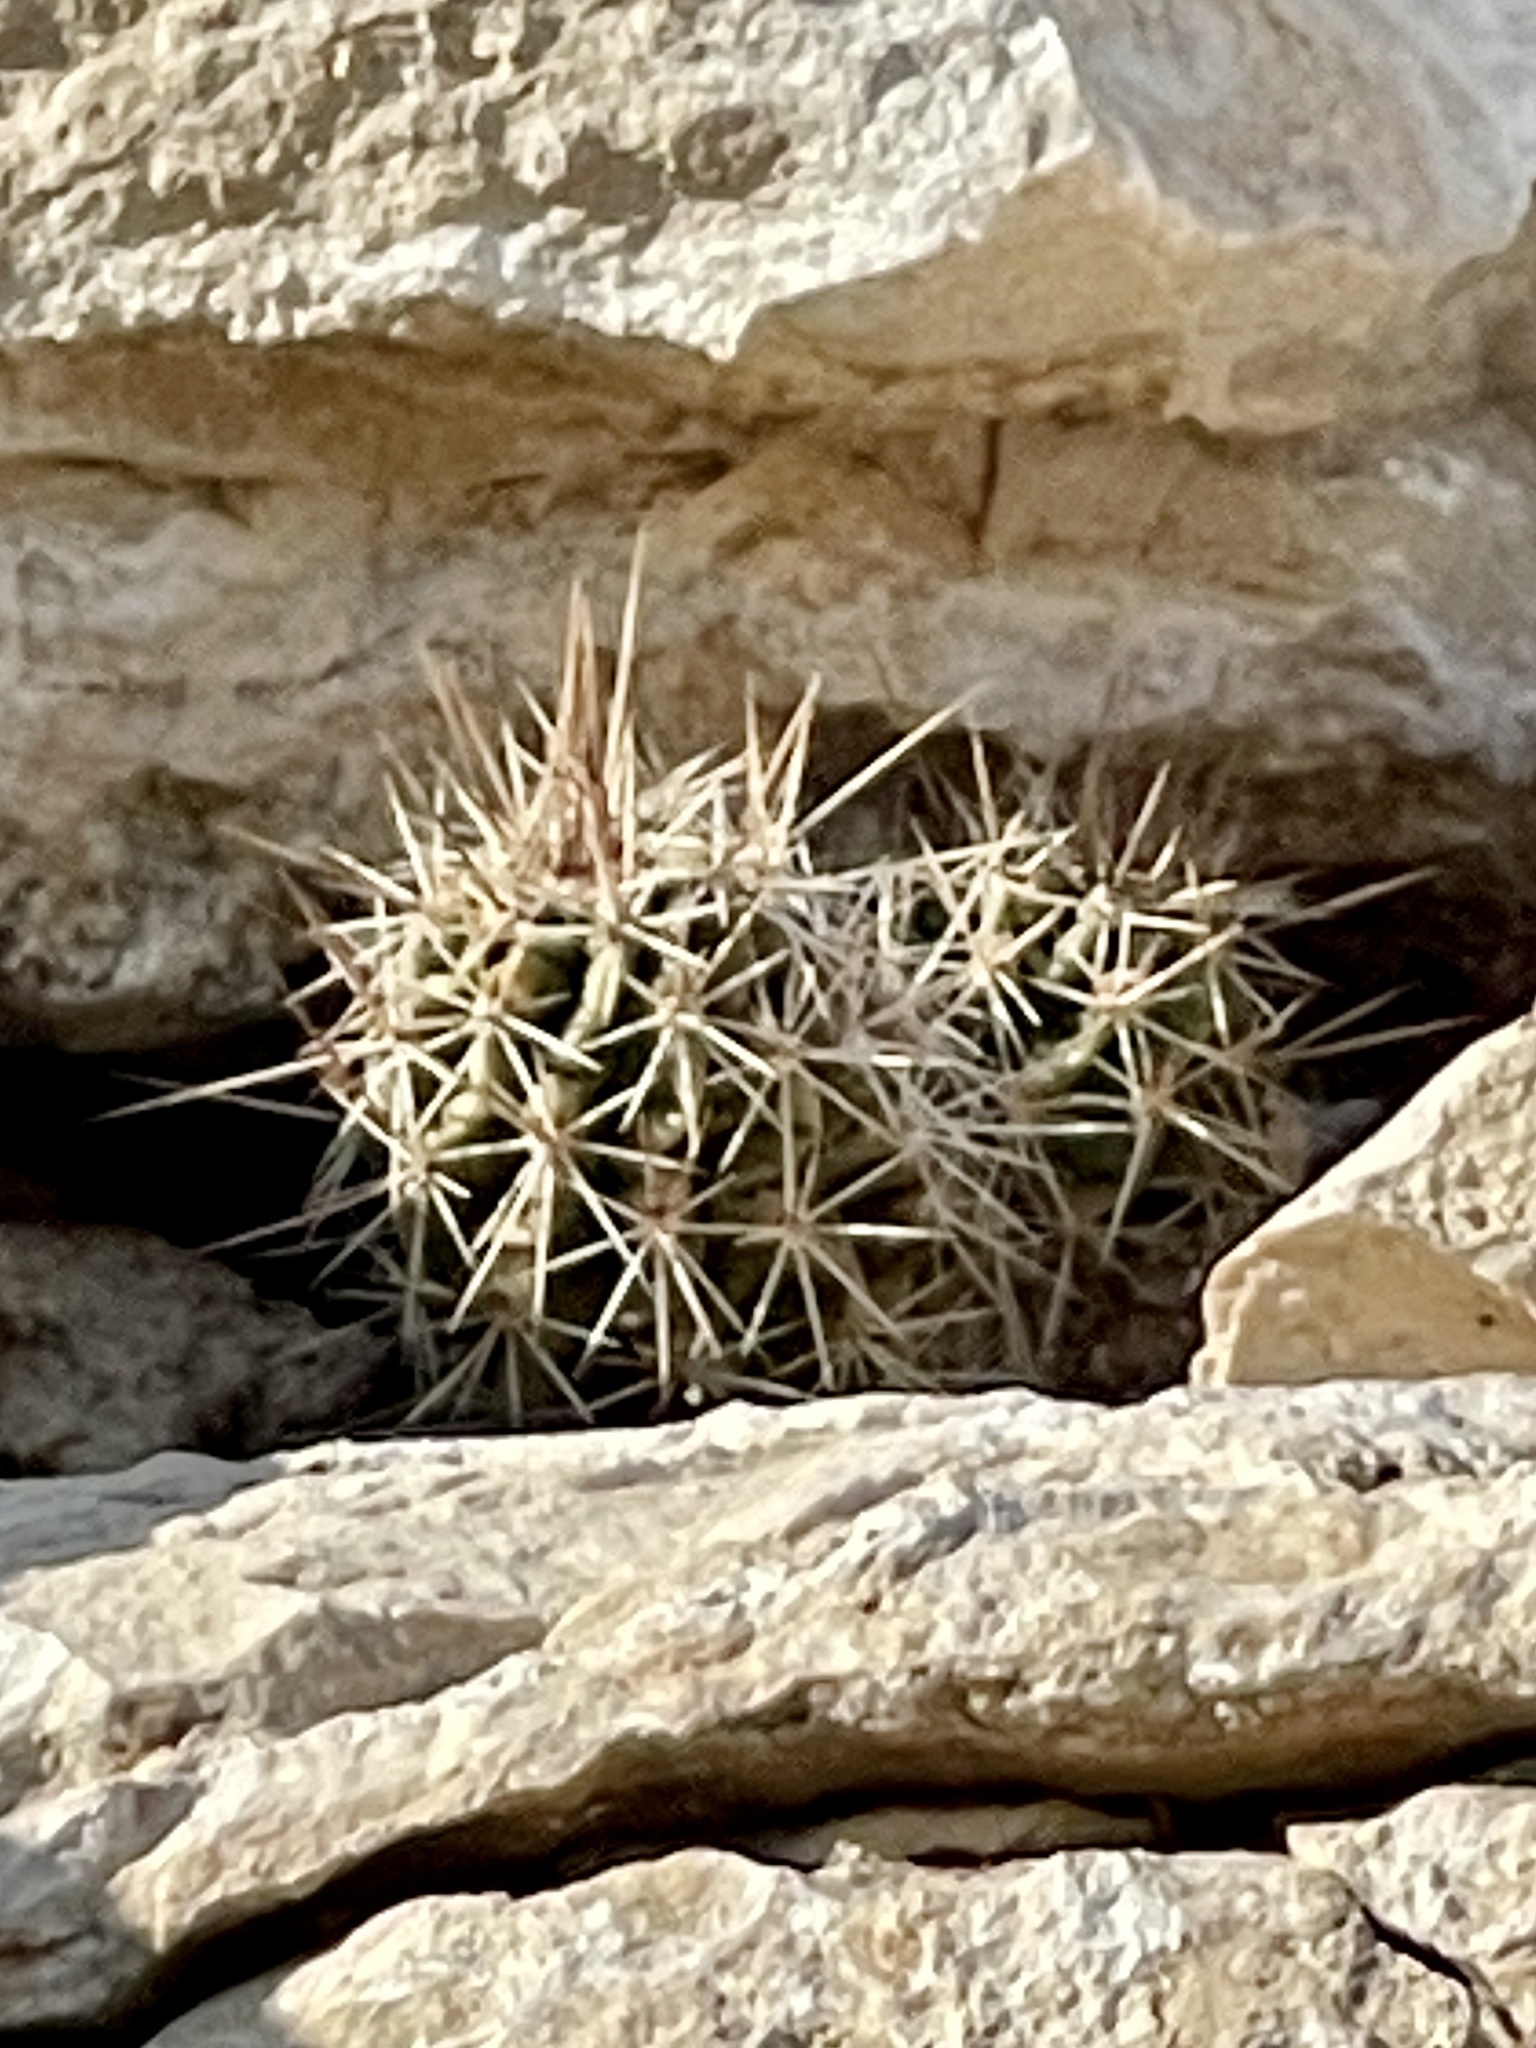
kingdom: Plantae
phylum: Tracheophyta
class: Magnoliopsida
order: Caryophyllales
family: Cactaceae
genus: Echinocereus
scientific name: Echinocereus enneacanthus
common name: Pitaya
